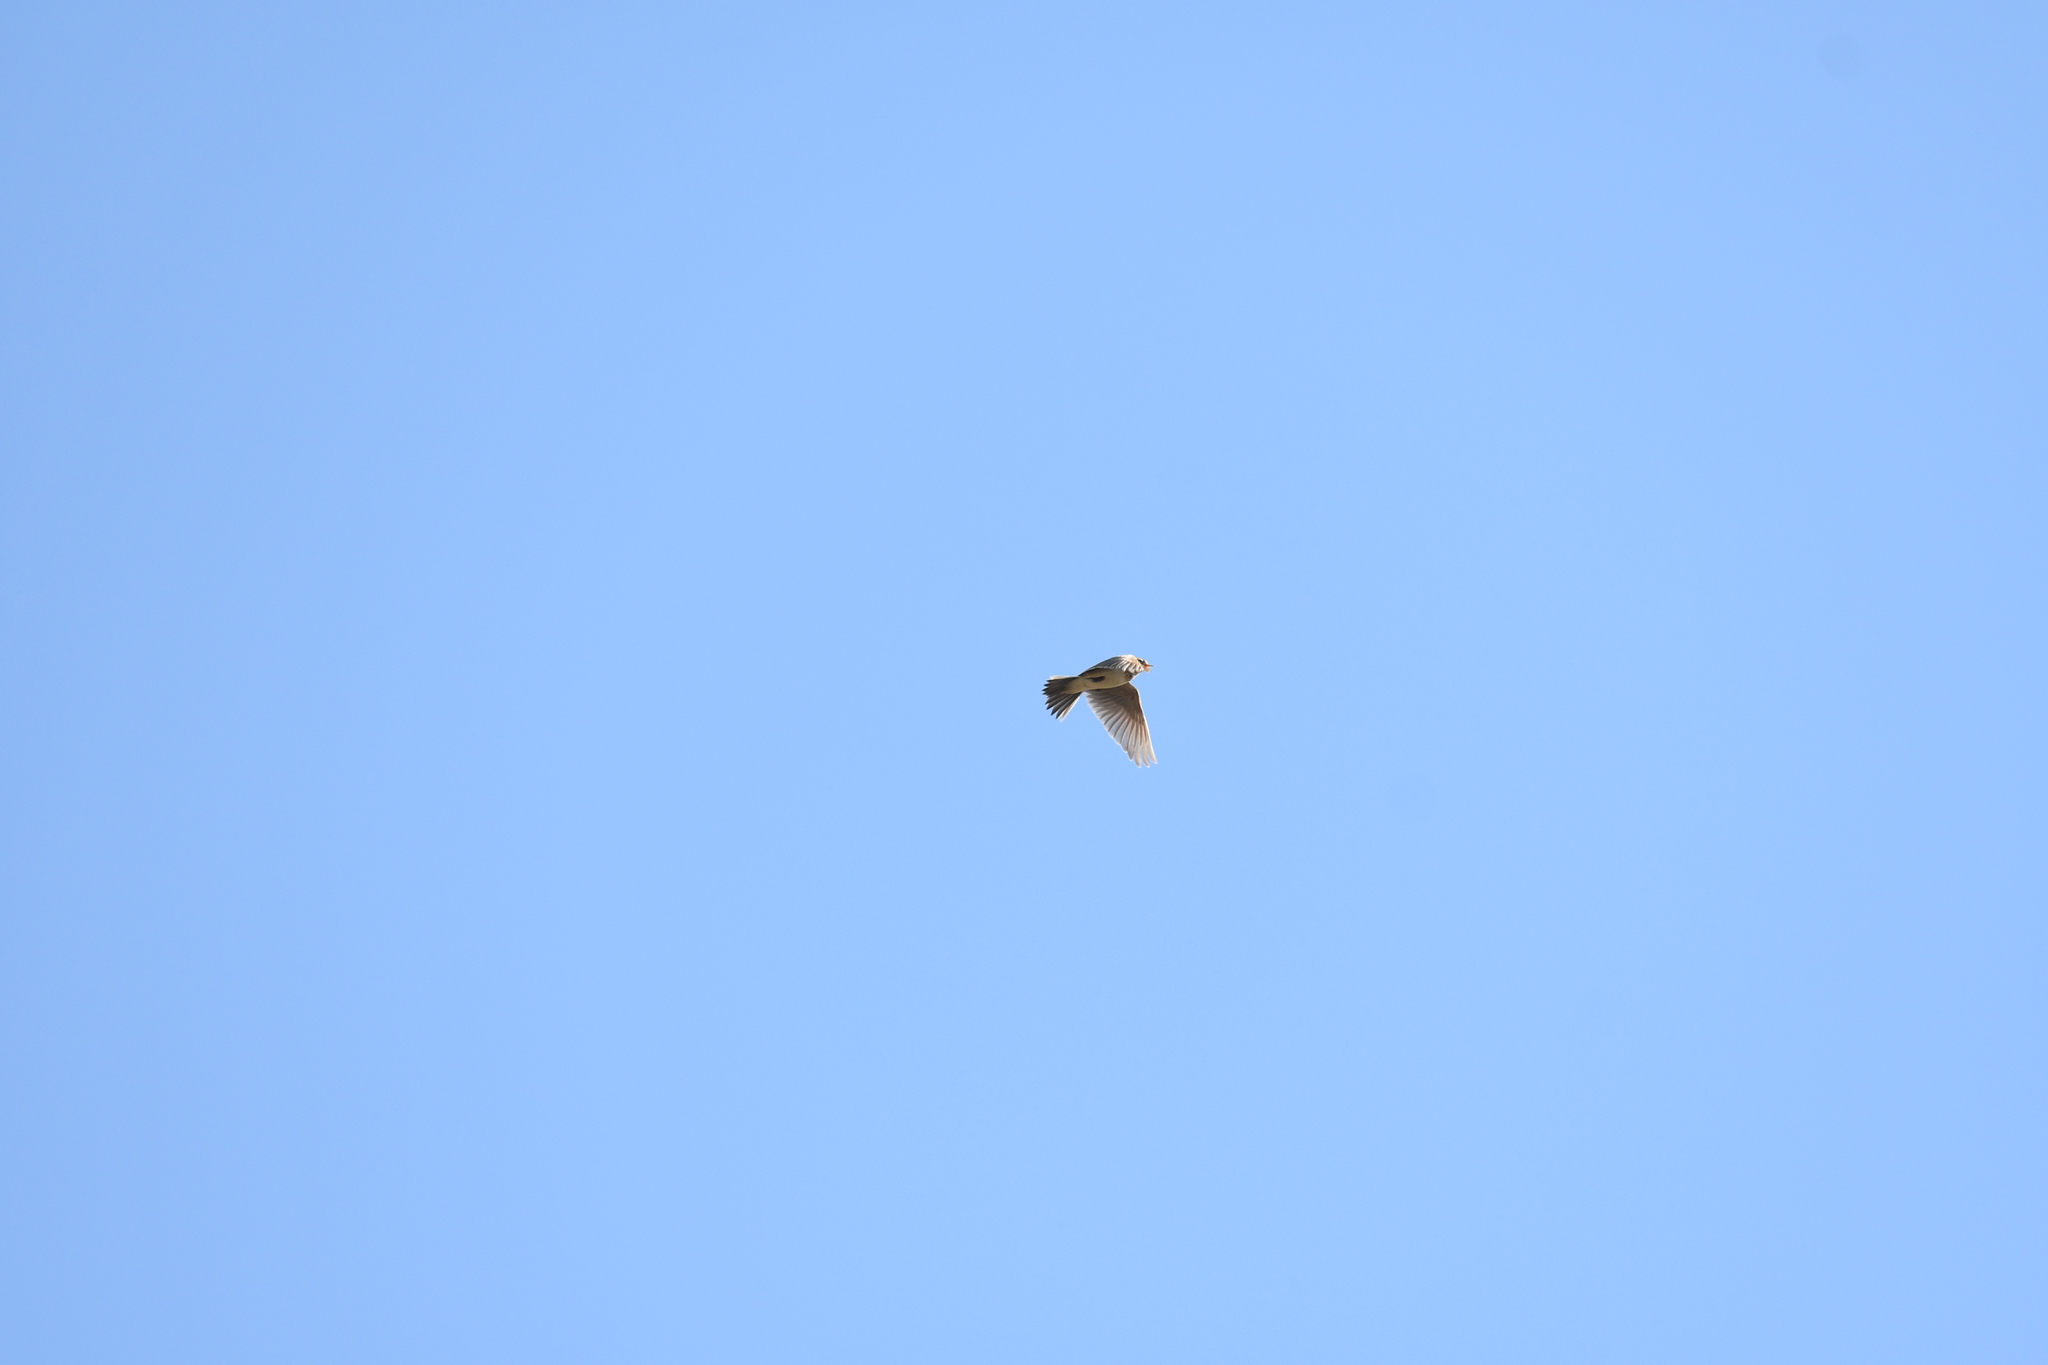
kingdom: Animalia
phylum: Chordata
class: Aves
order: Passeriformes
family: Alaudidae
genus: Alauda
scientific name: Alauda arvensis
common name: Eurasian skylark
